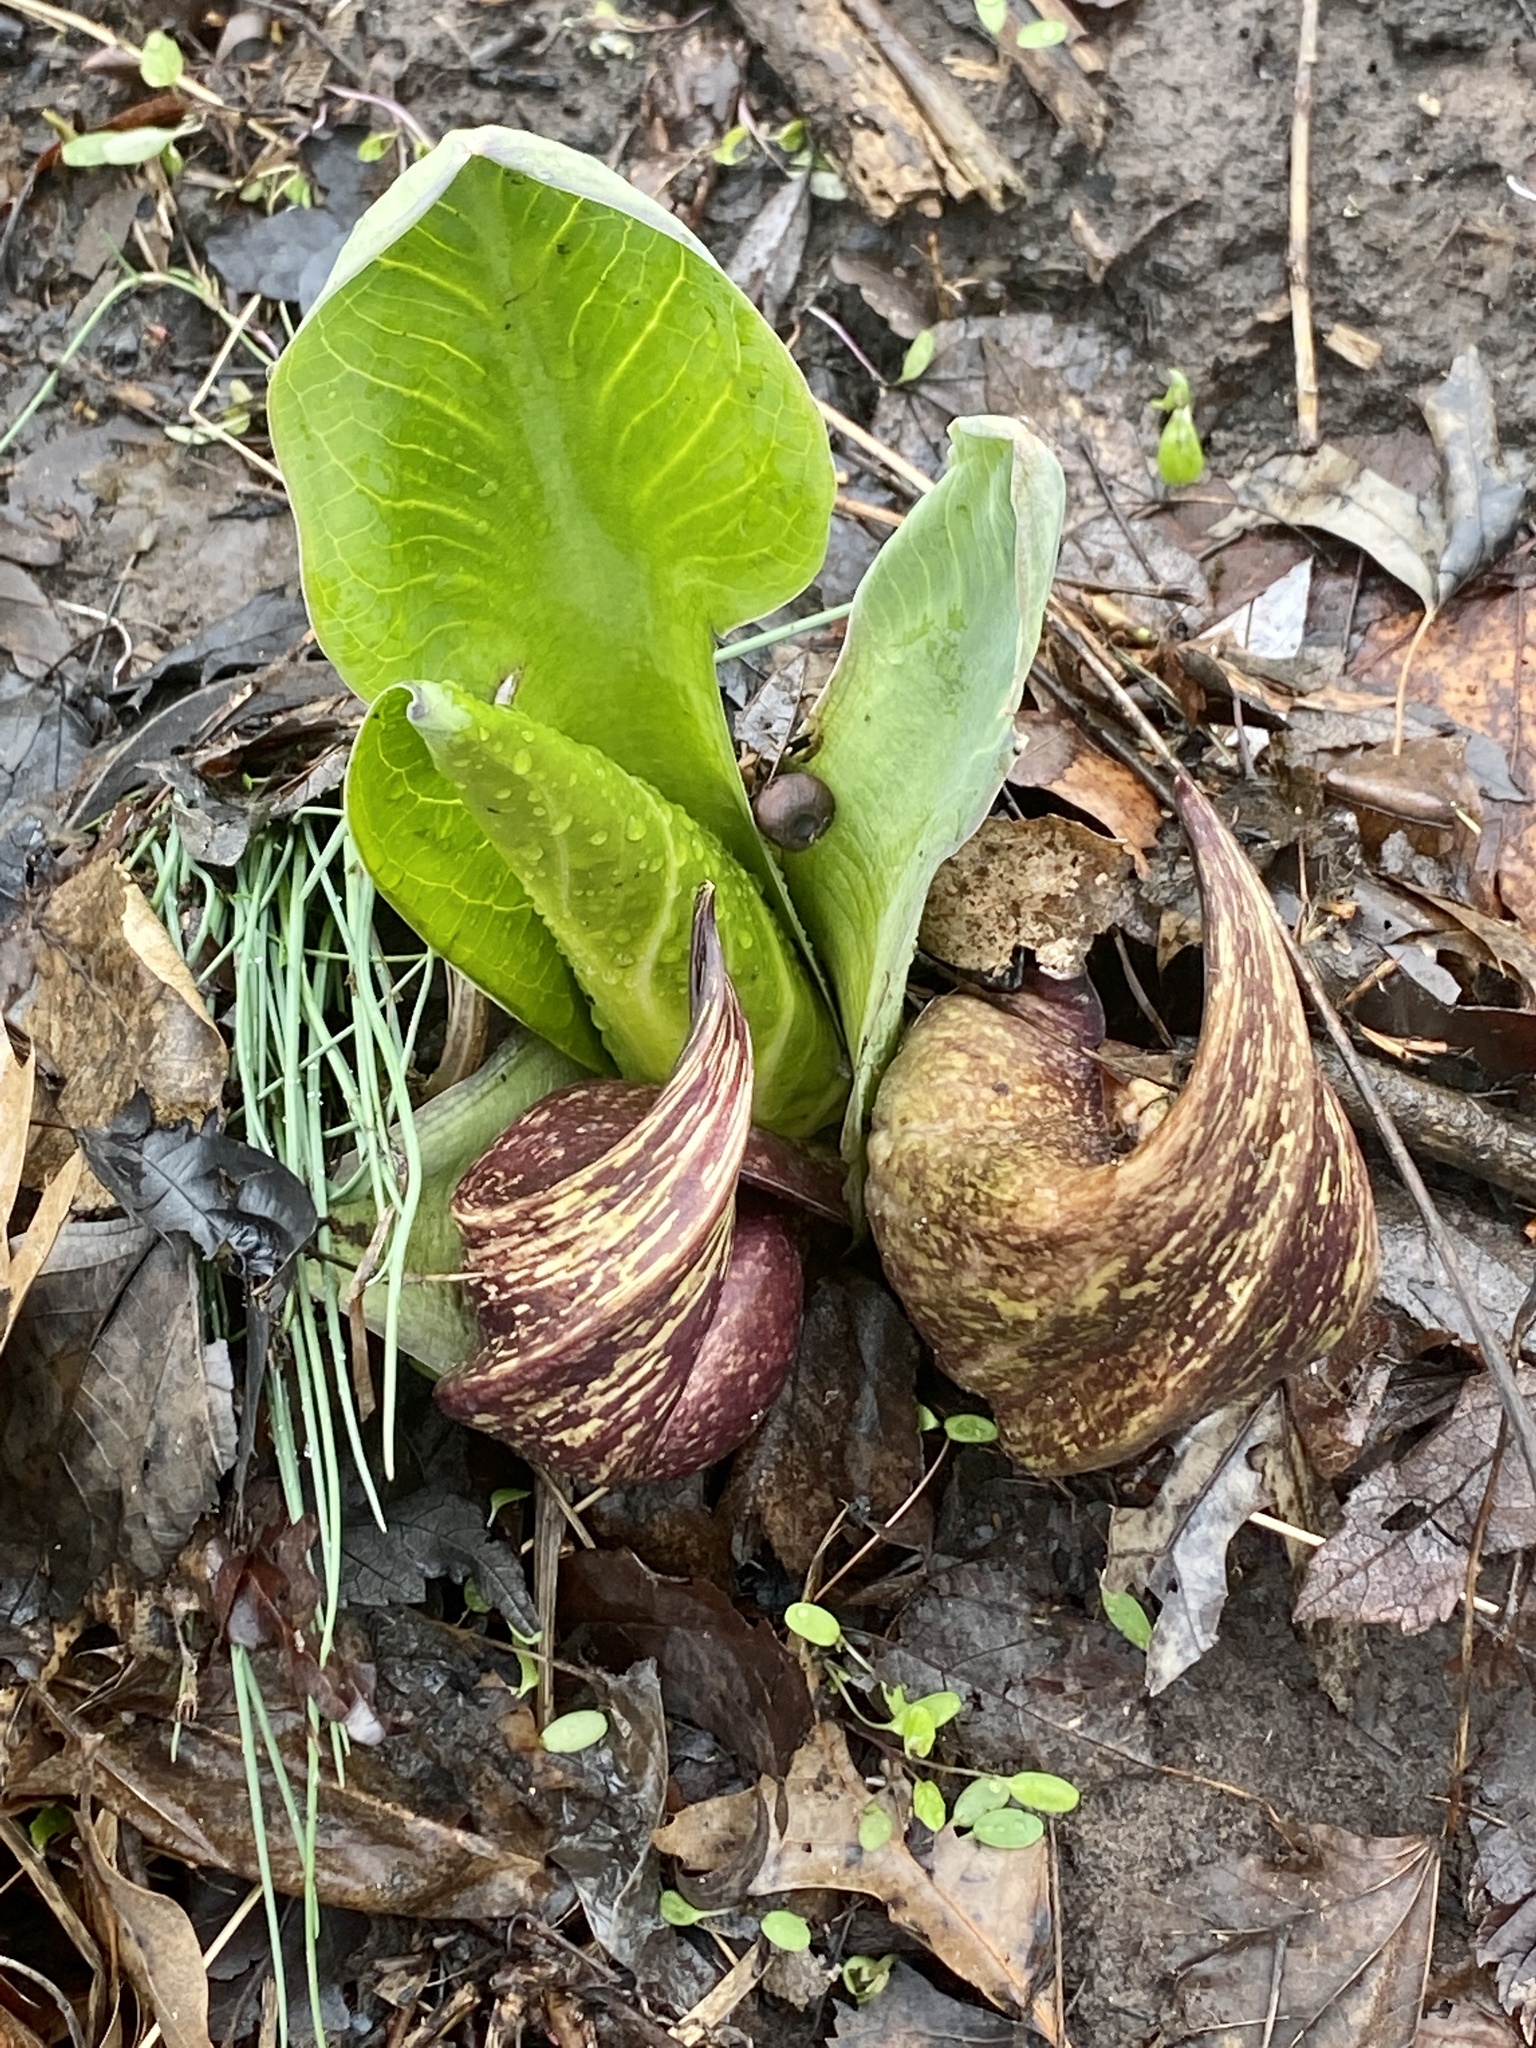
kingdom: Plantae
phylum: Tracheophyta
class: Liliopsida
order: Alismatales
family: Araceae
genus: Symplocarpus
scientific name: Symplocarpus foetidus
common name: Eastern skunk cabbage
